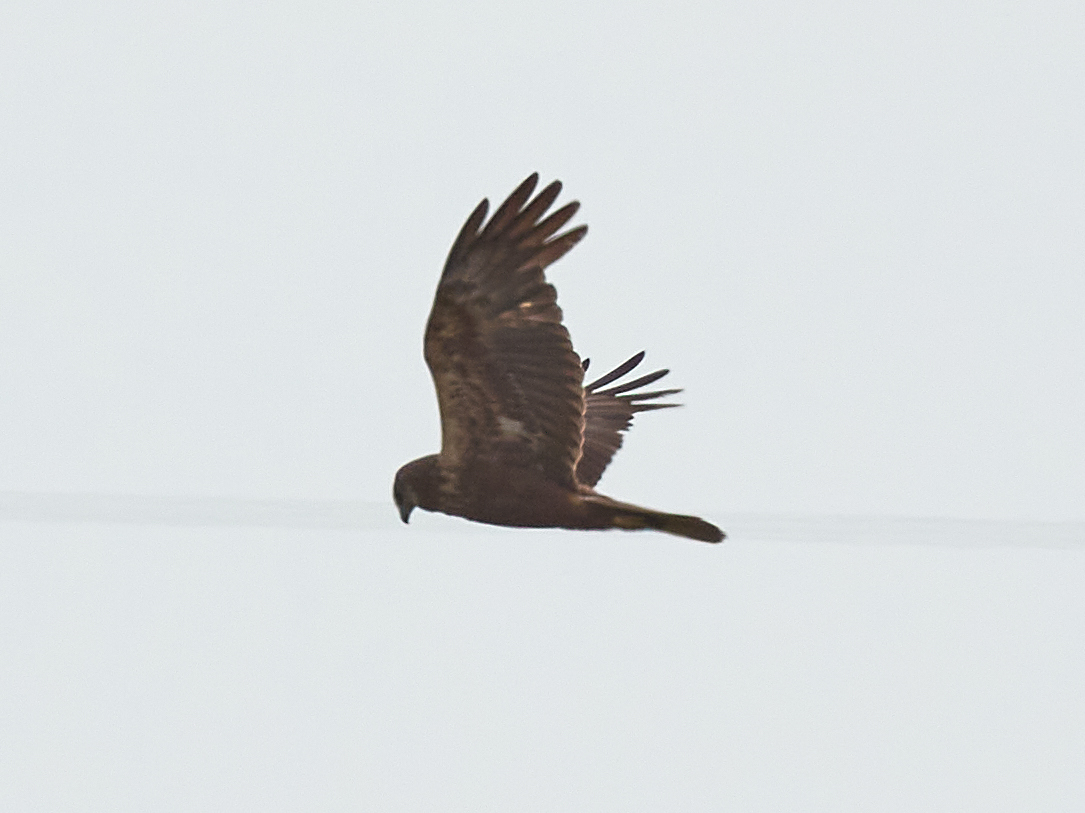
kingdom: Animalia
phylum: Chordata
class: Aves
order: Accipitriformes
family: Accipitridae
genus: Circus
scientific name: Circus aeruginosus
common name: Western marsh harrier
